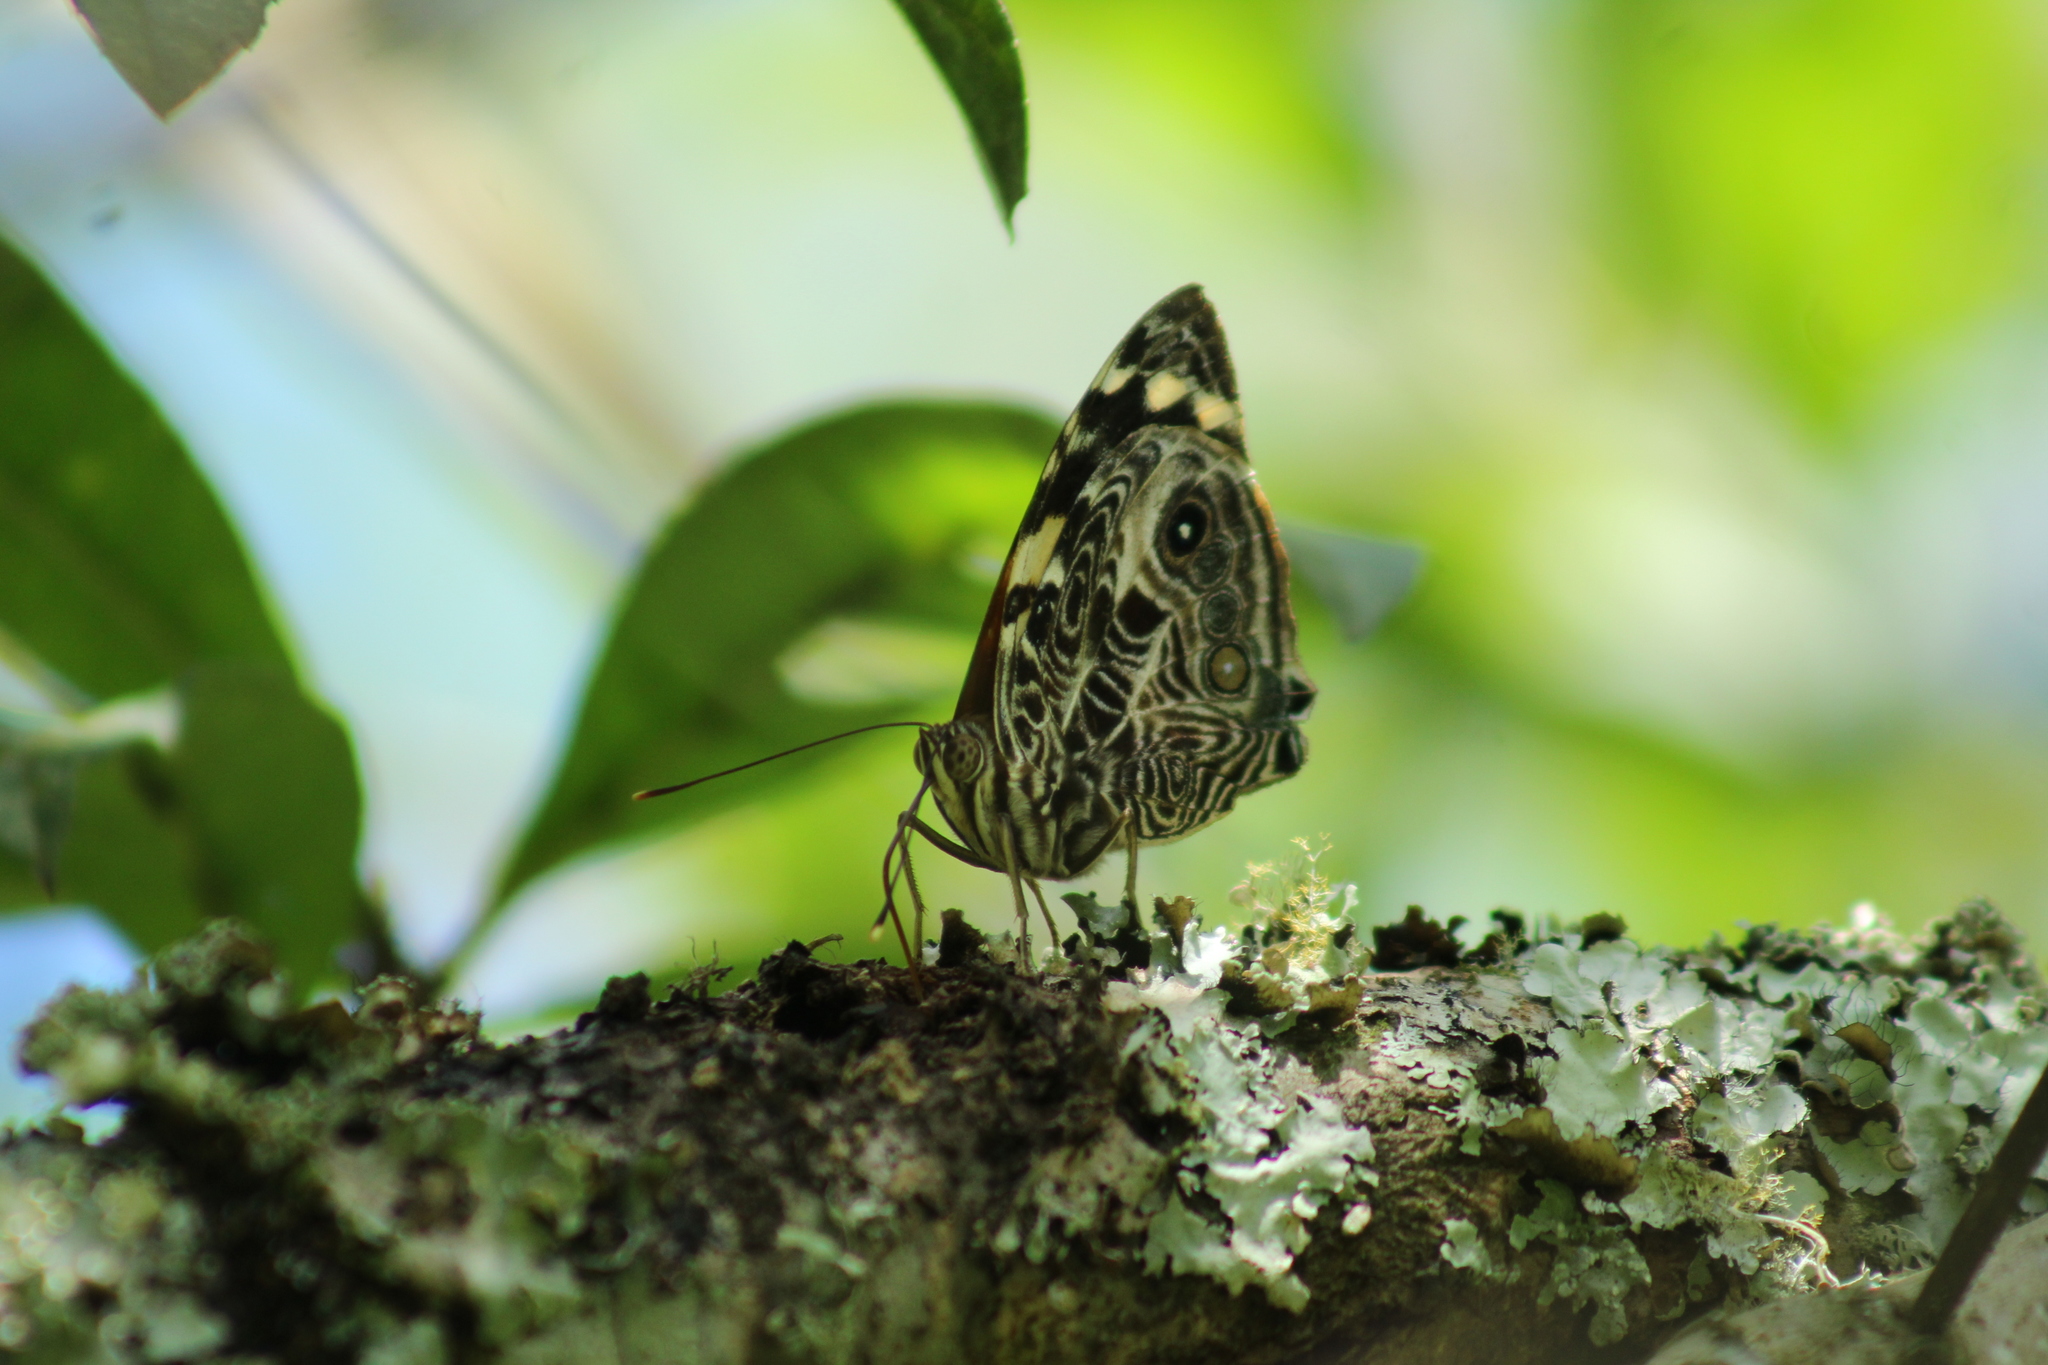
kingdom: Animalia
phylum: Arthropoda
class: Insecta
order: Lepidoptera
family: Nymphalidae
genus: Smyrna
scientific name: Smyrna blomfildia
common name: Blomfild's beauty
